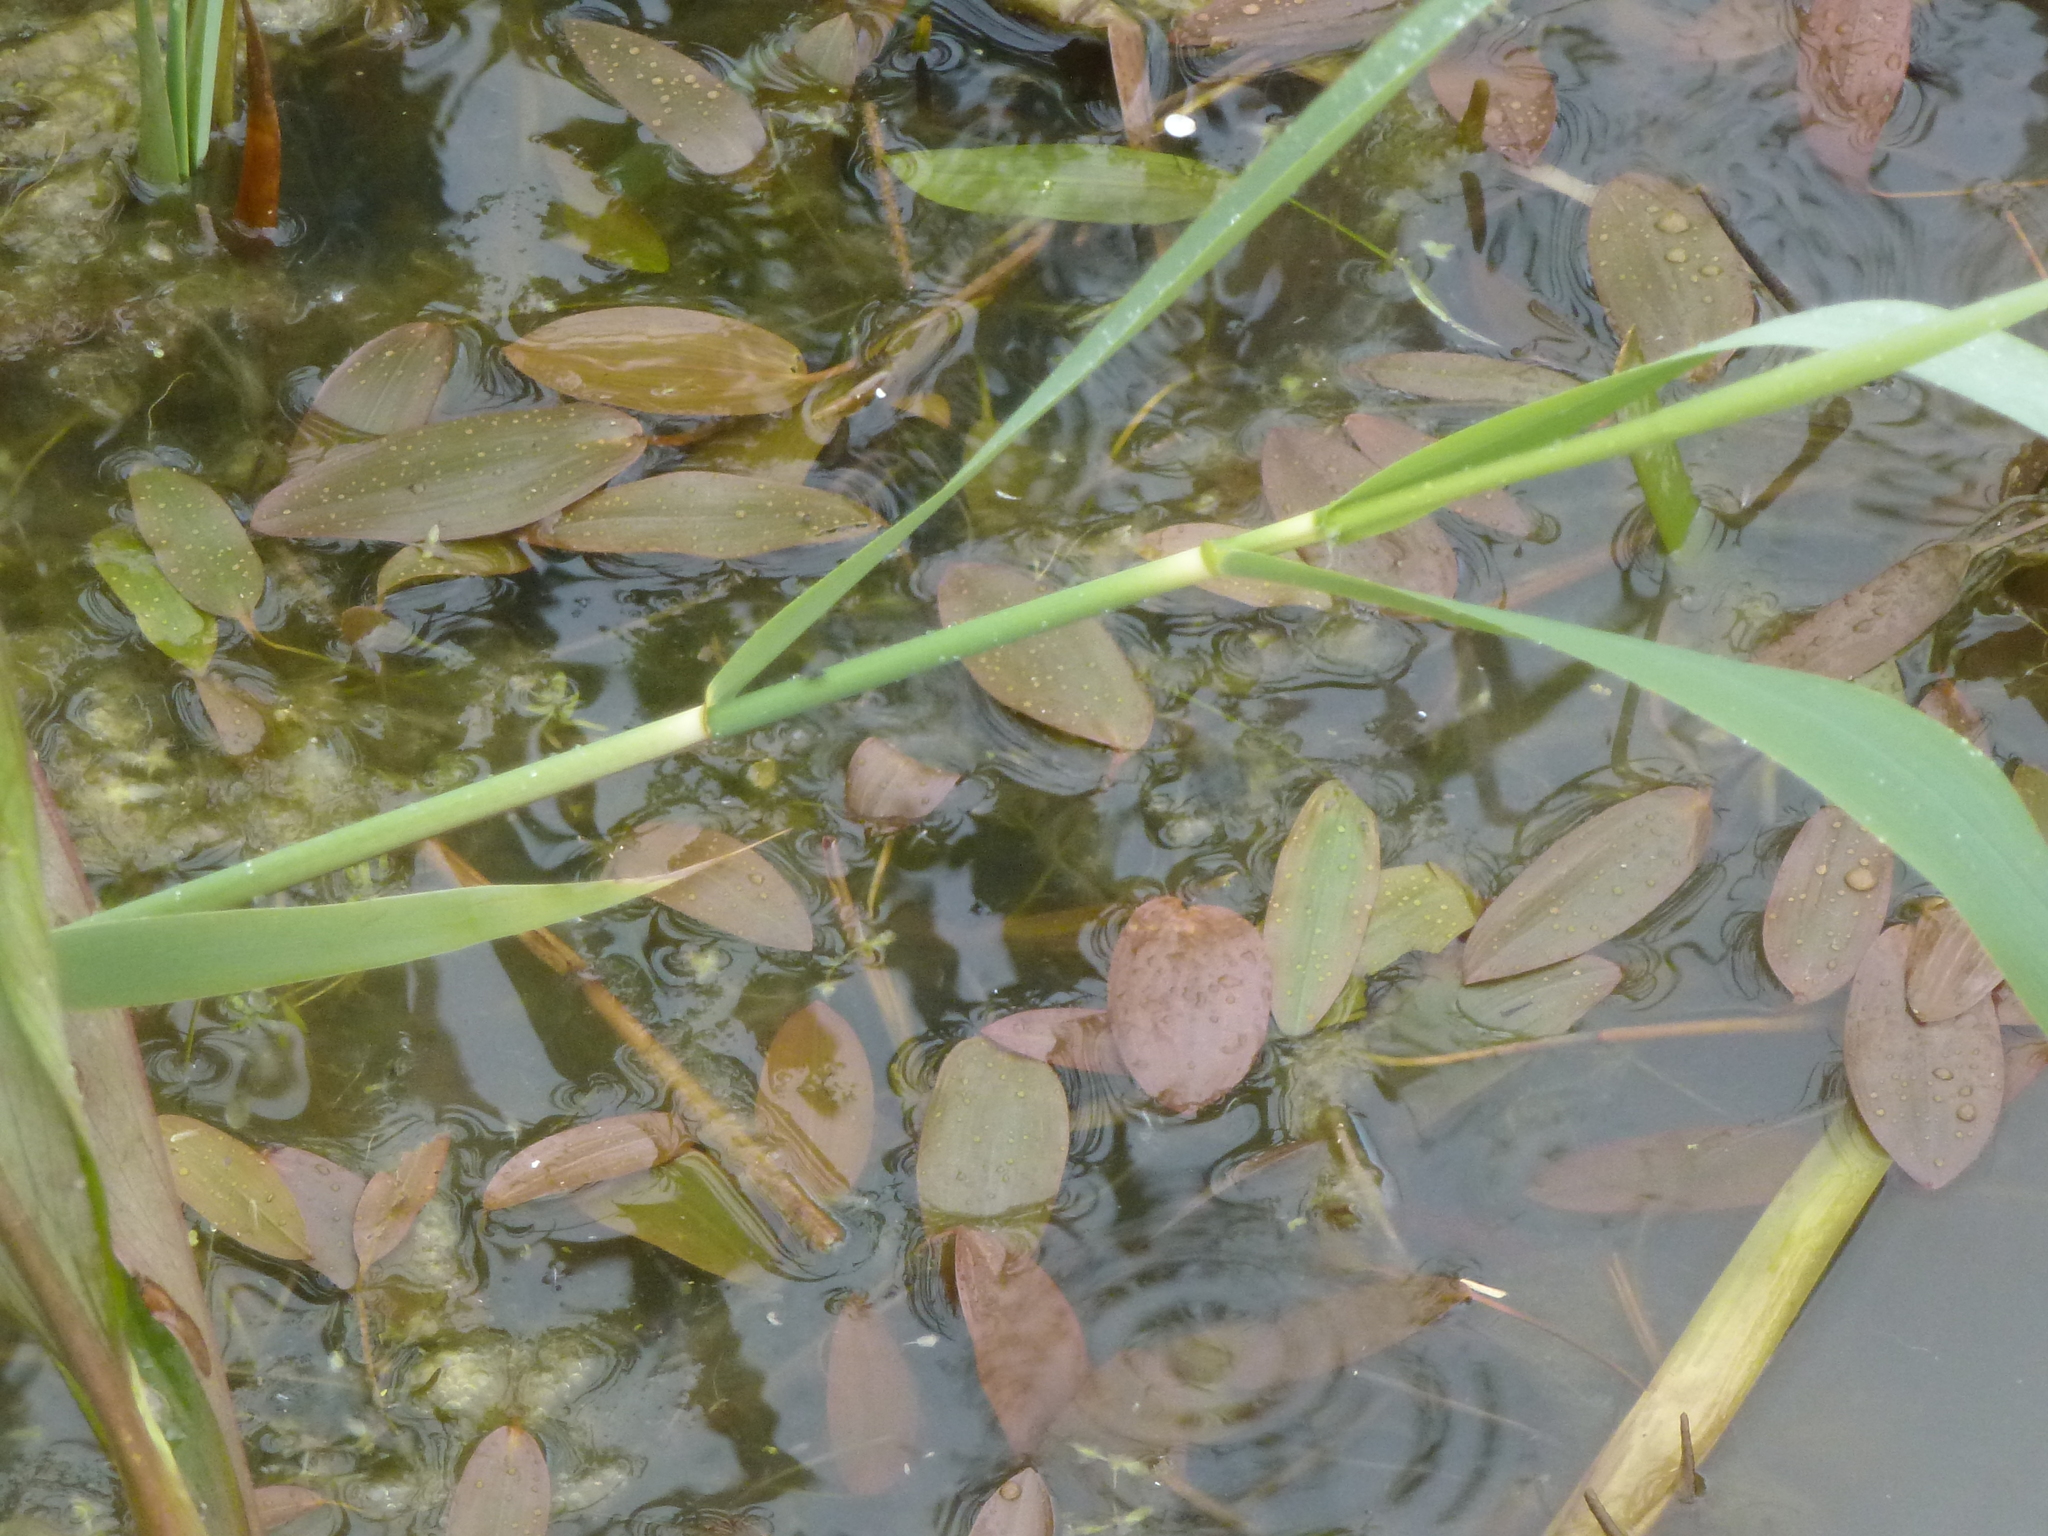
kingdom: Plantae
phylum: Tracheophyta
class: Liliopsida
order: Alismatales
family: Potamogetonaceae
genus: Potamogeton
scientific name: Potamogeton natans
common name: Broad-leaved pondweed
